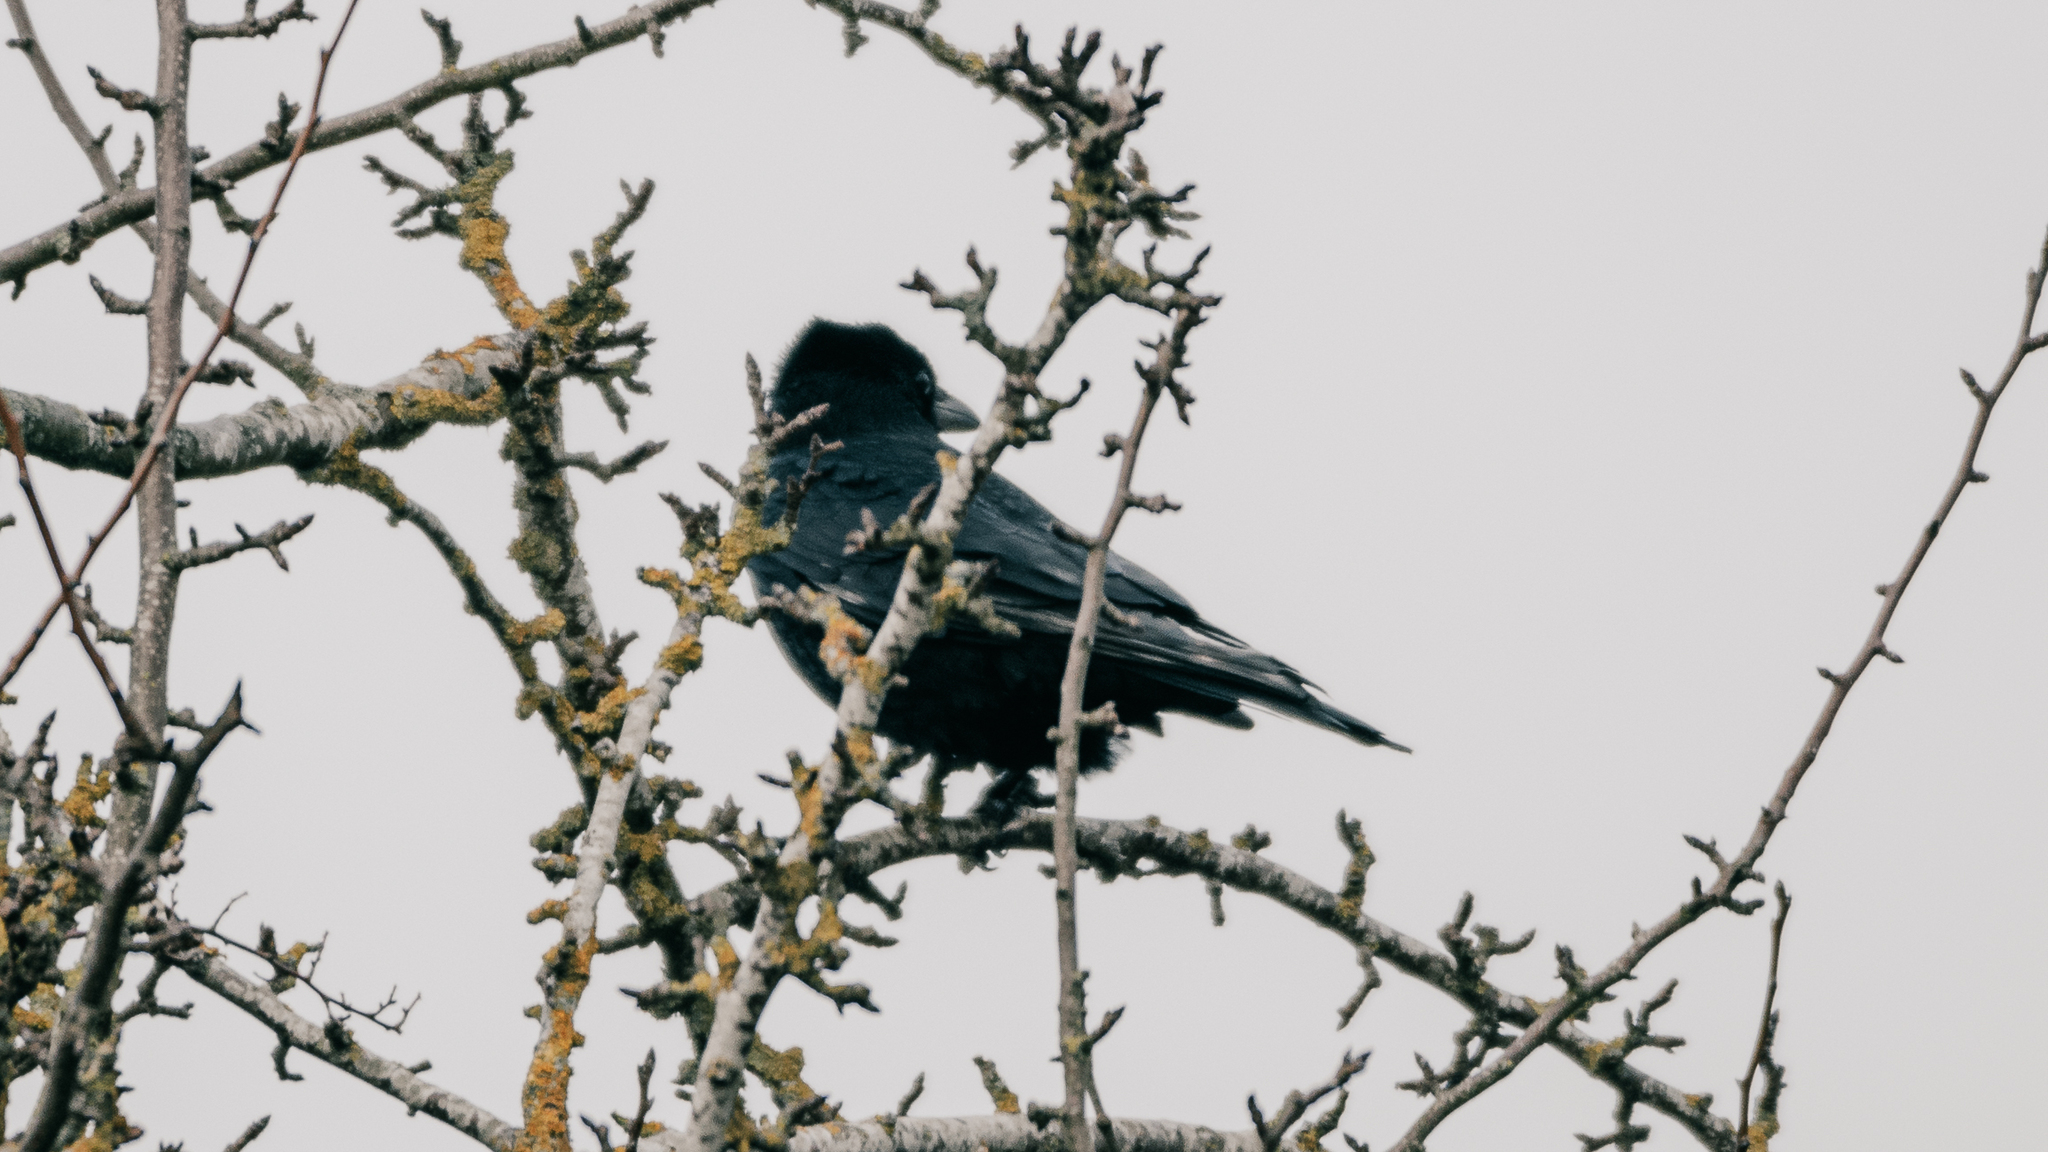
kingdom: Animalia
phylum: Chordata
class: Aves
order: Passeriformes
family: Corvidae
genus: Corvus
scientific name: Corvus corone
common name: Carrion crow
